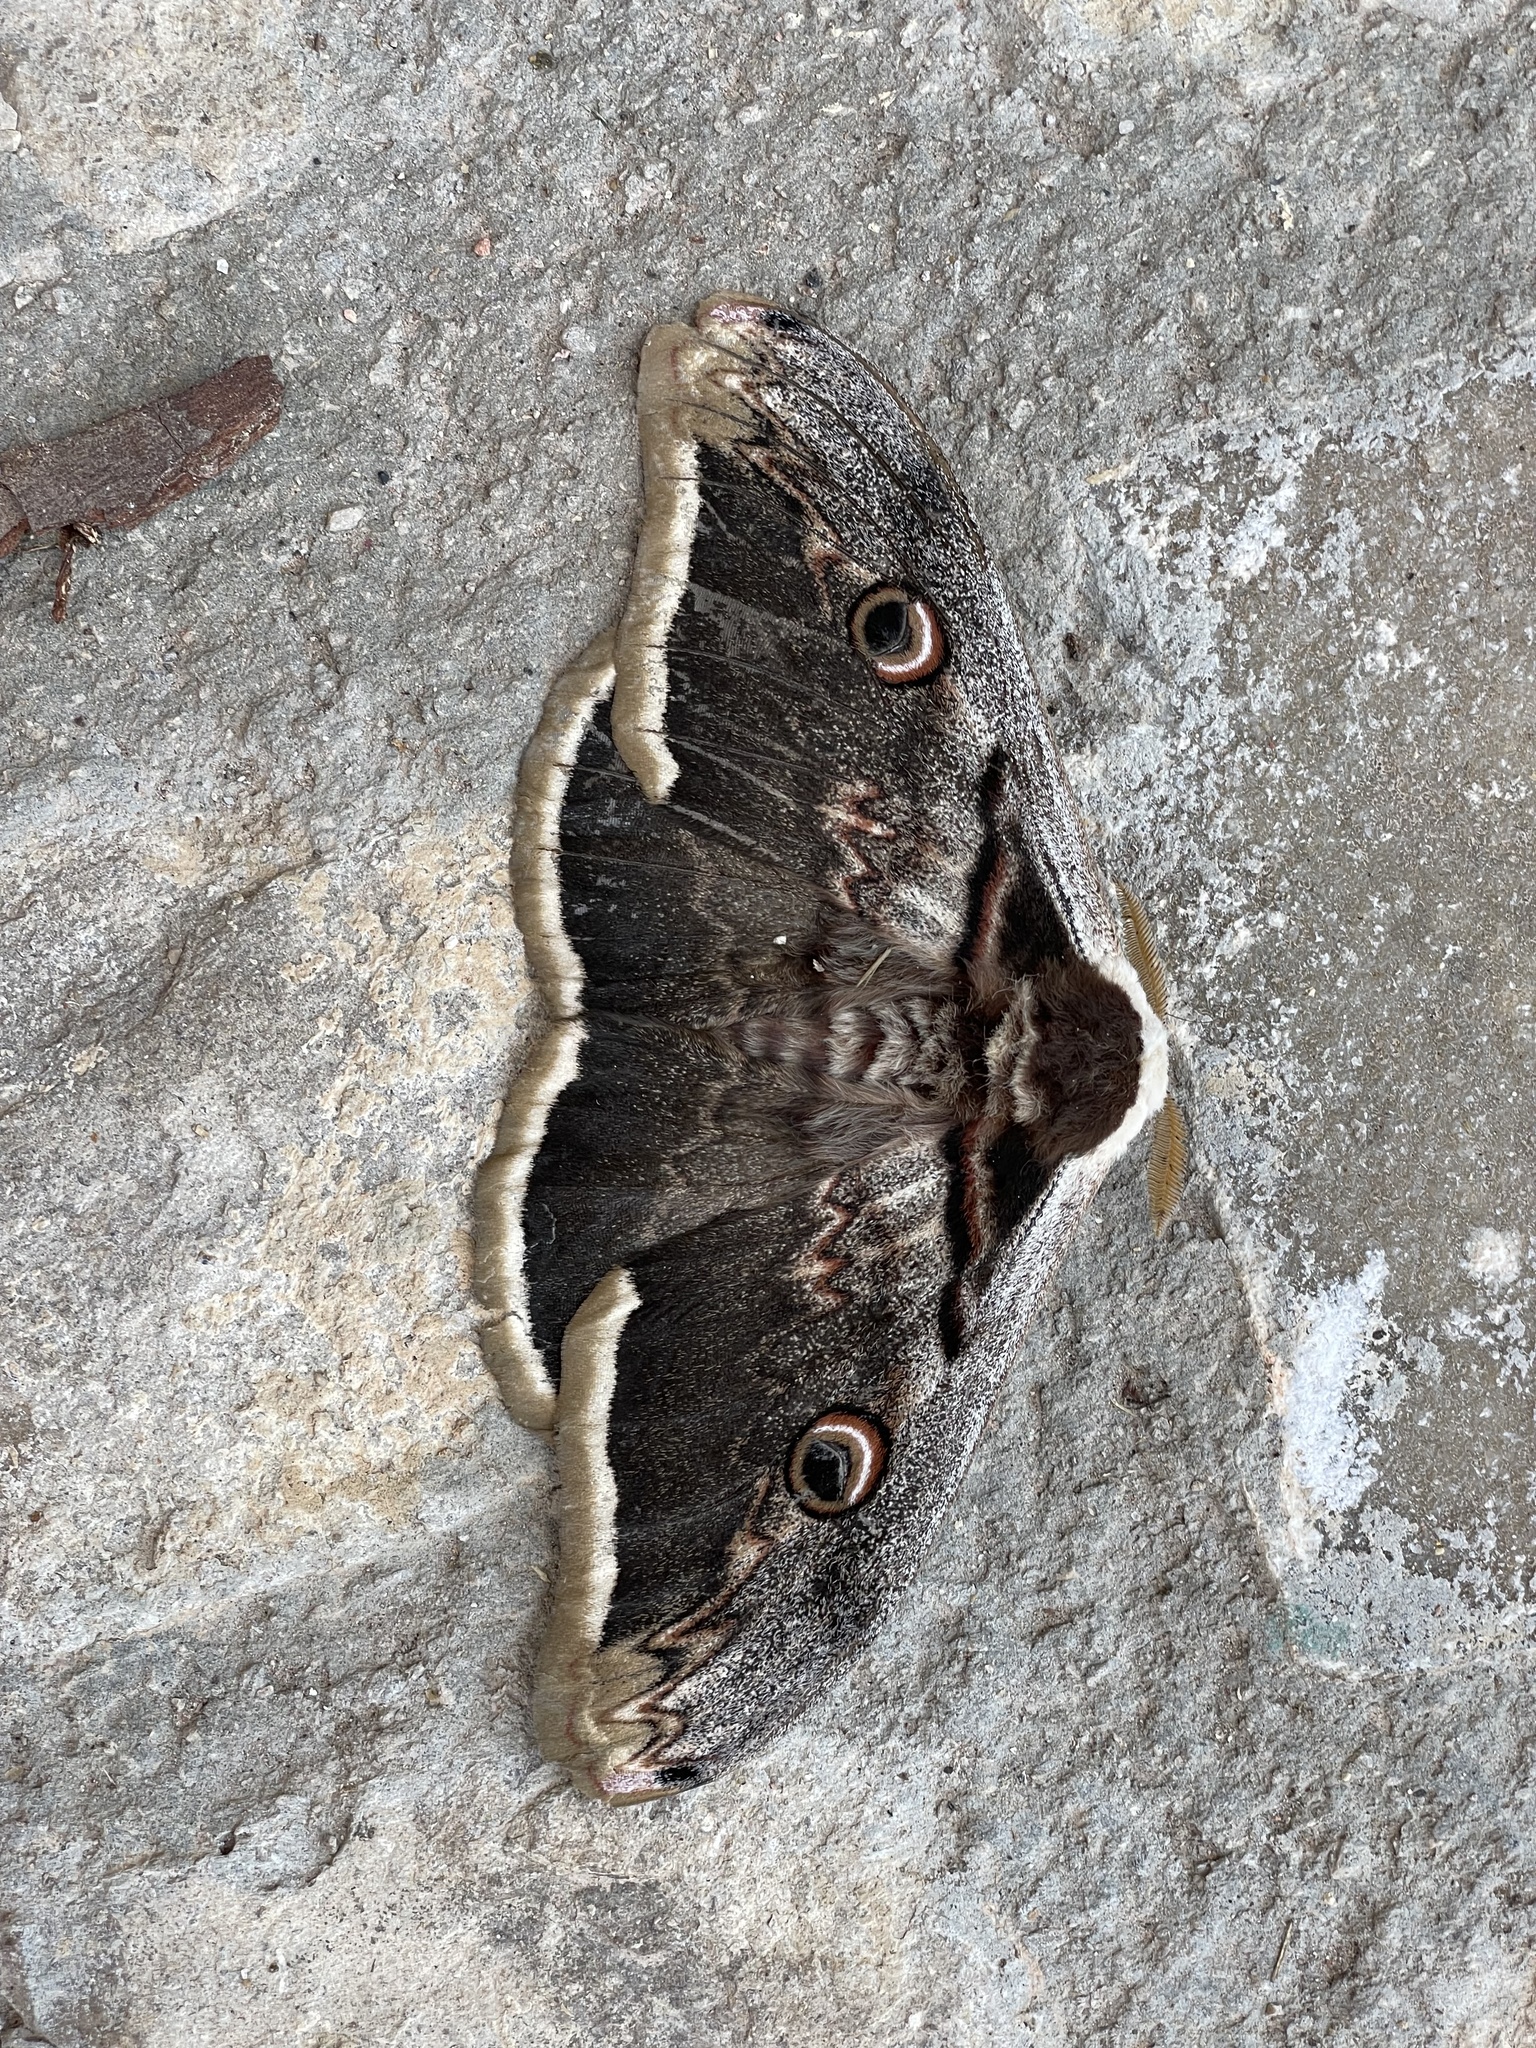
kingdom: Animalia
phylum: Arthropoda
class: Insecta
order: Lepidoptera
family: Saturniidae
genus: Saturnia
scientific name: Saturnia pyri
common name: Great peacock moth
